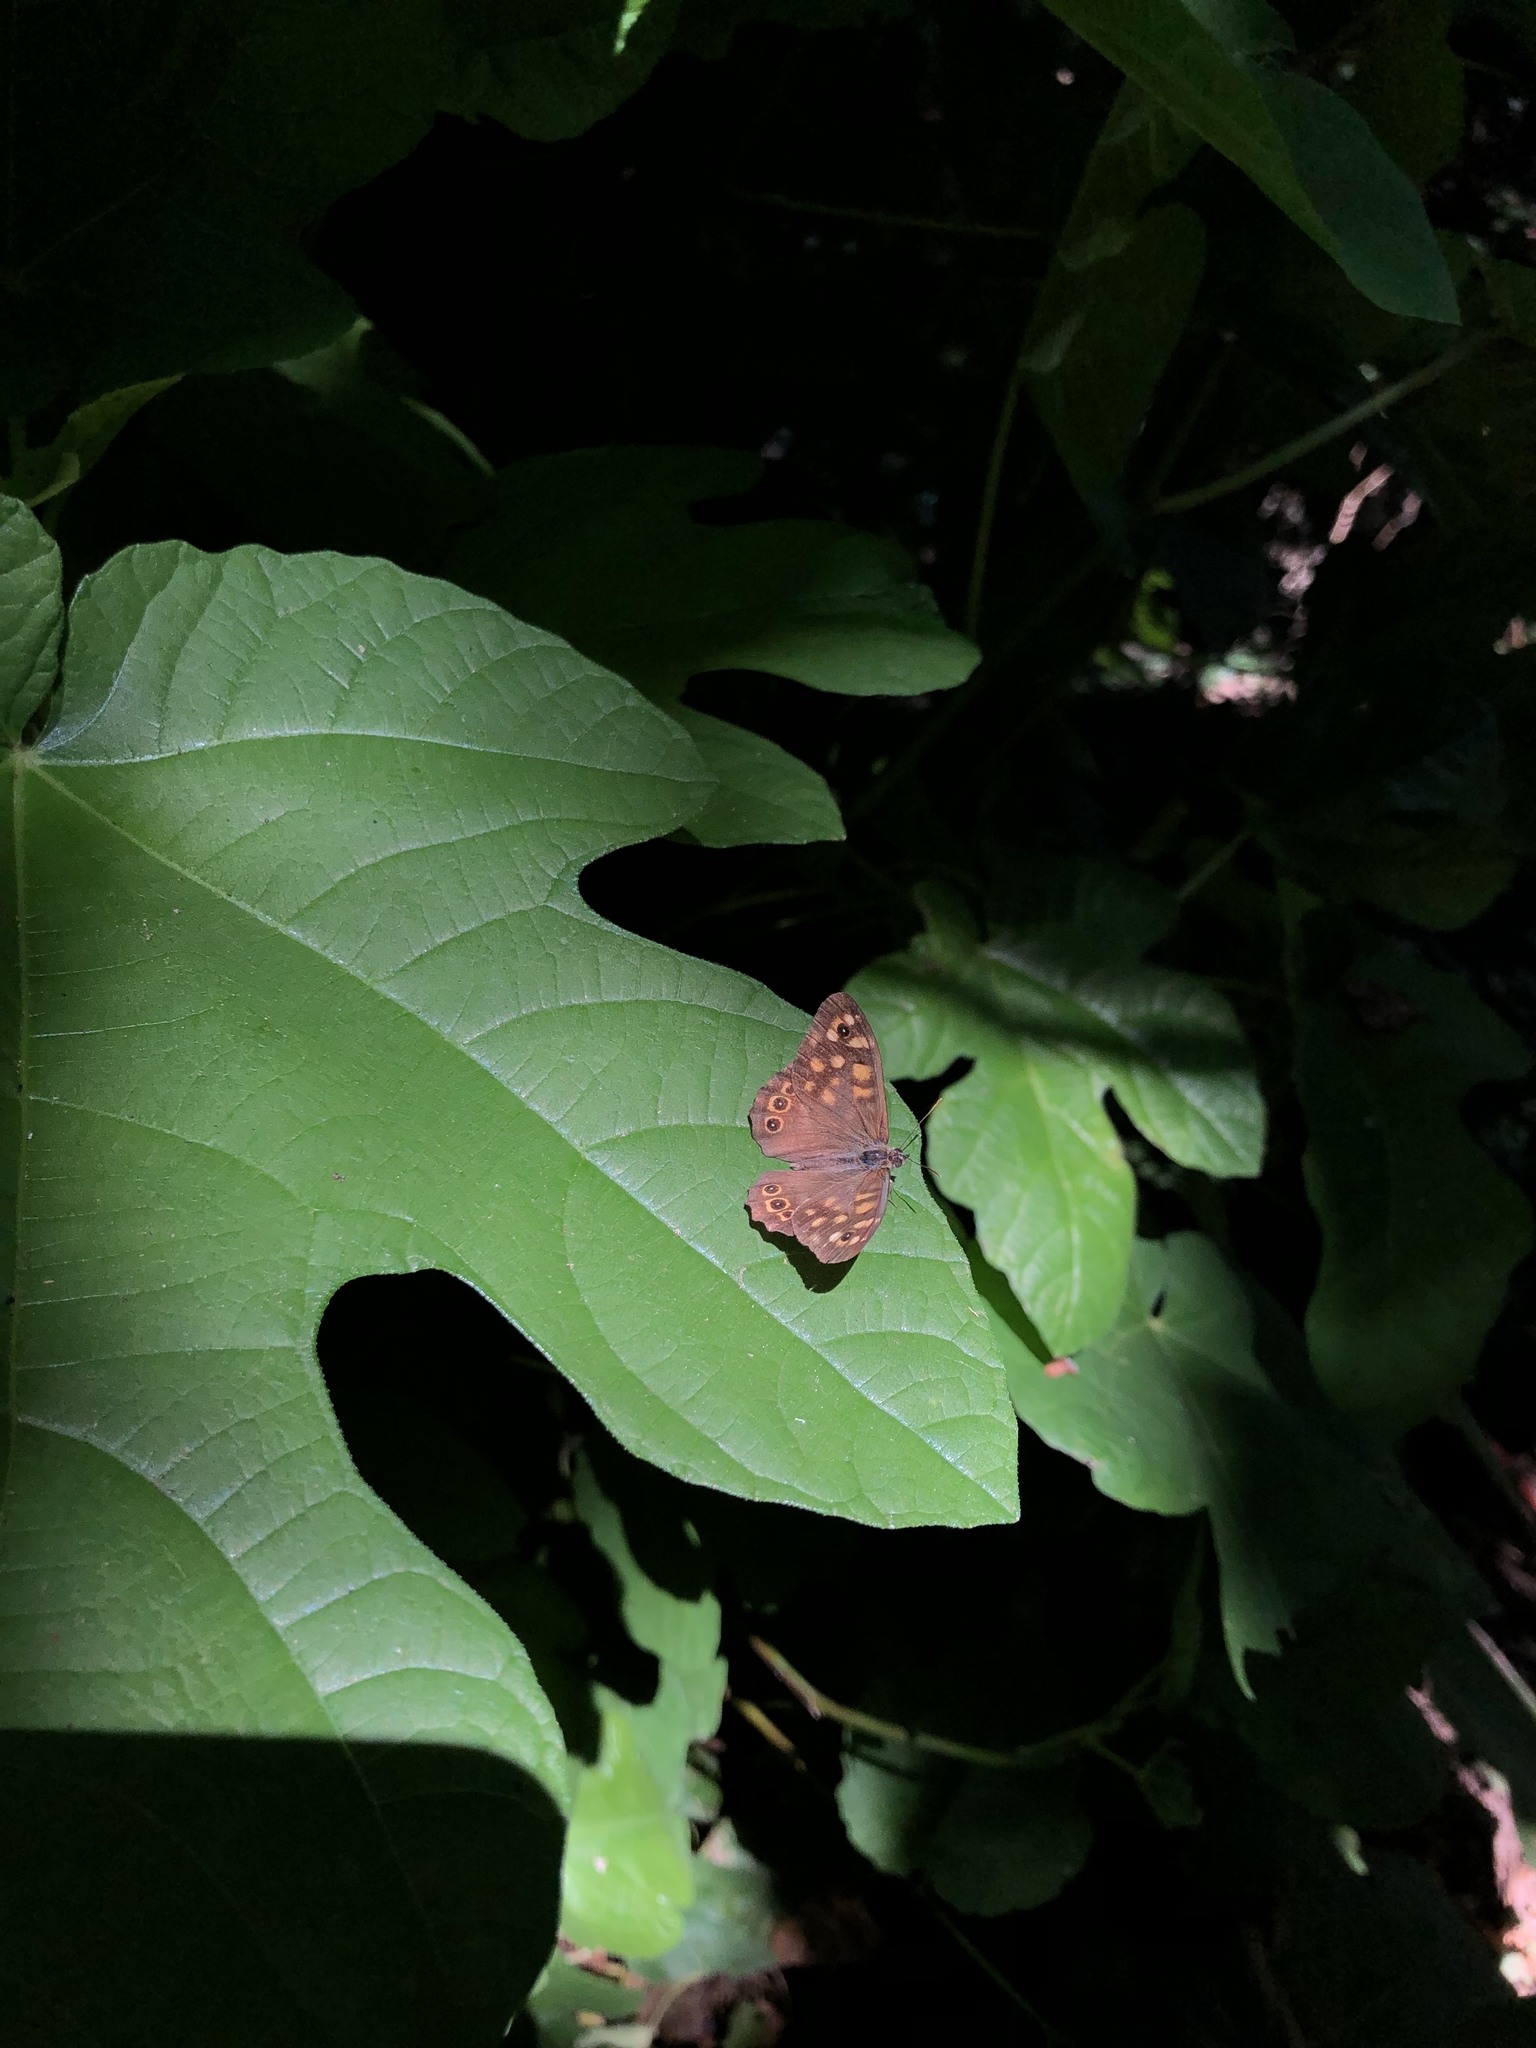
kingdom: Animalia
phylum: Arthropoda
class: Insecta
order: Lepidoptera
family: Nymphalidae
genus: Pararge
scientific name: Pararge aegeria
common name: Speckled wood
